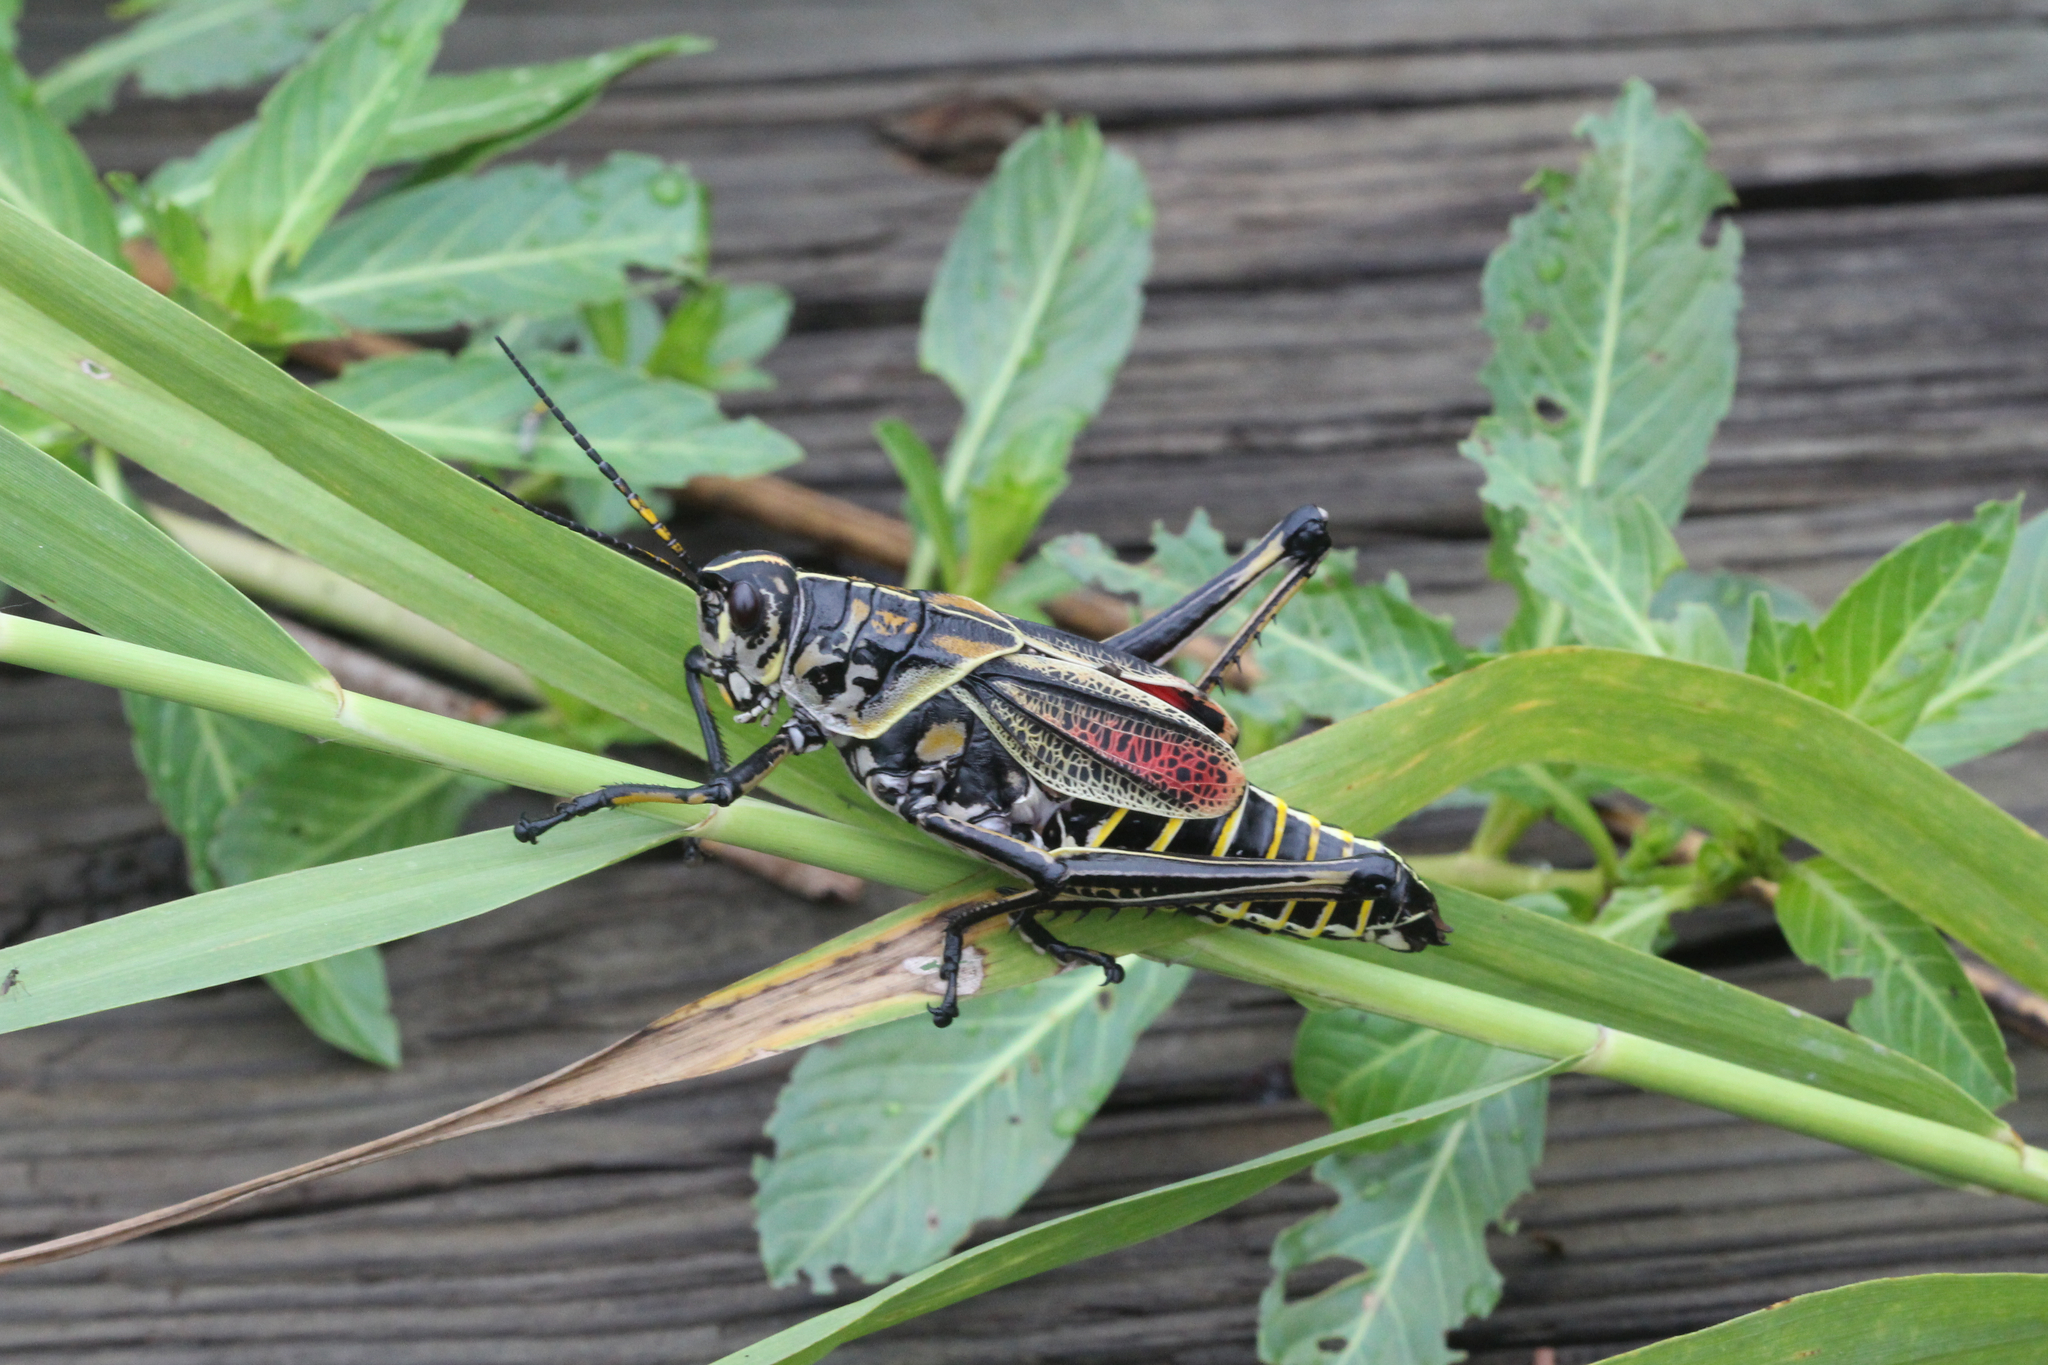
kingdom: Animalia
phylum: Arthropoda
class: Insecta
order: Orthoptera
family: Romaleidae
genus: Romalea
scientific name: Romalea microptera
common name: Eastern lubber grasshopper
